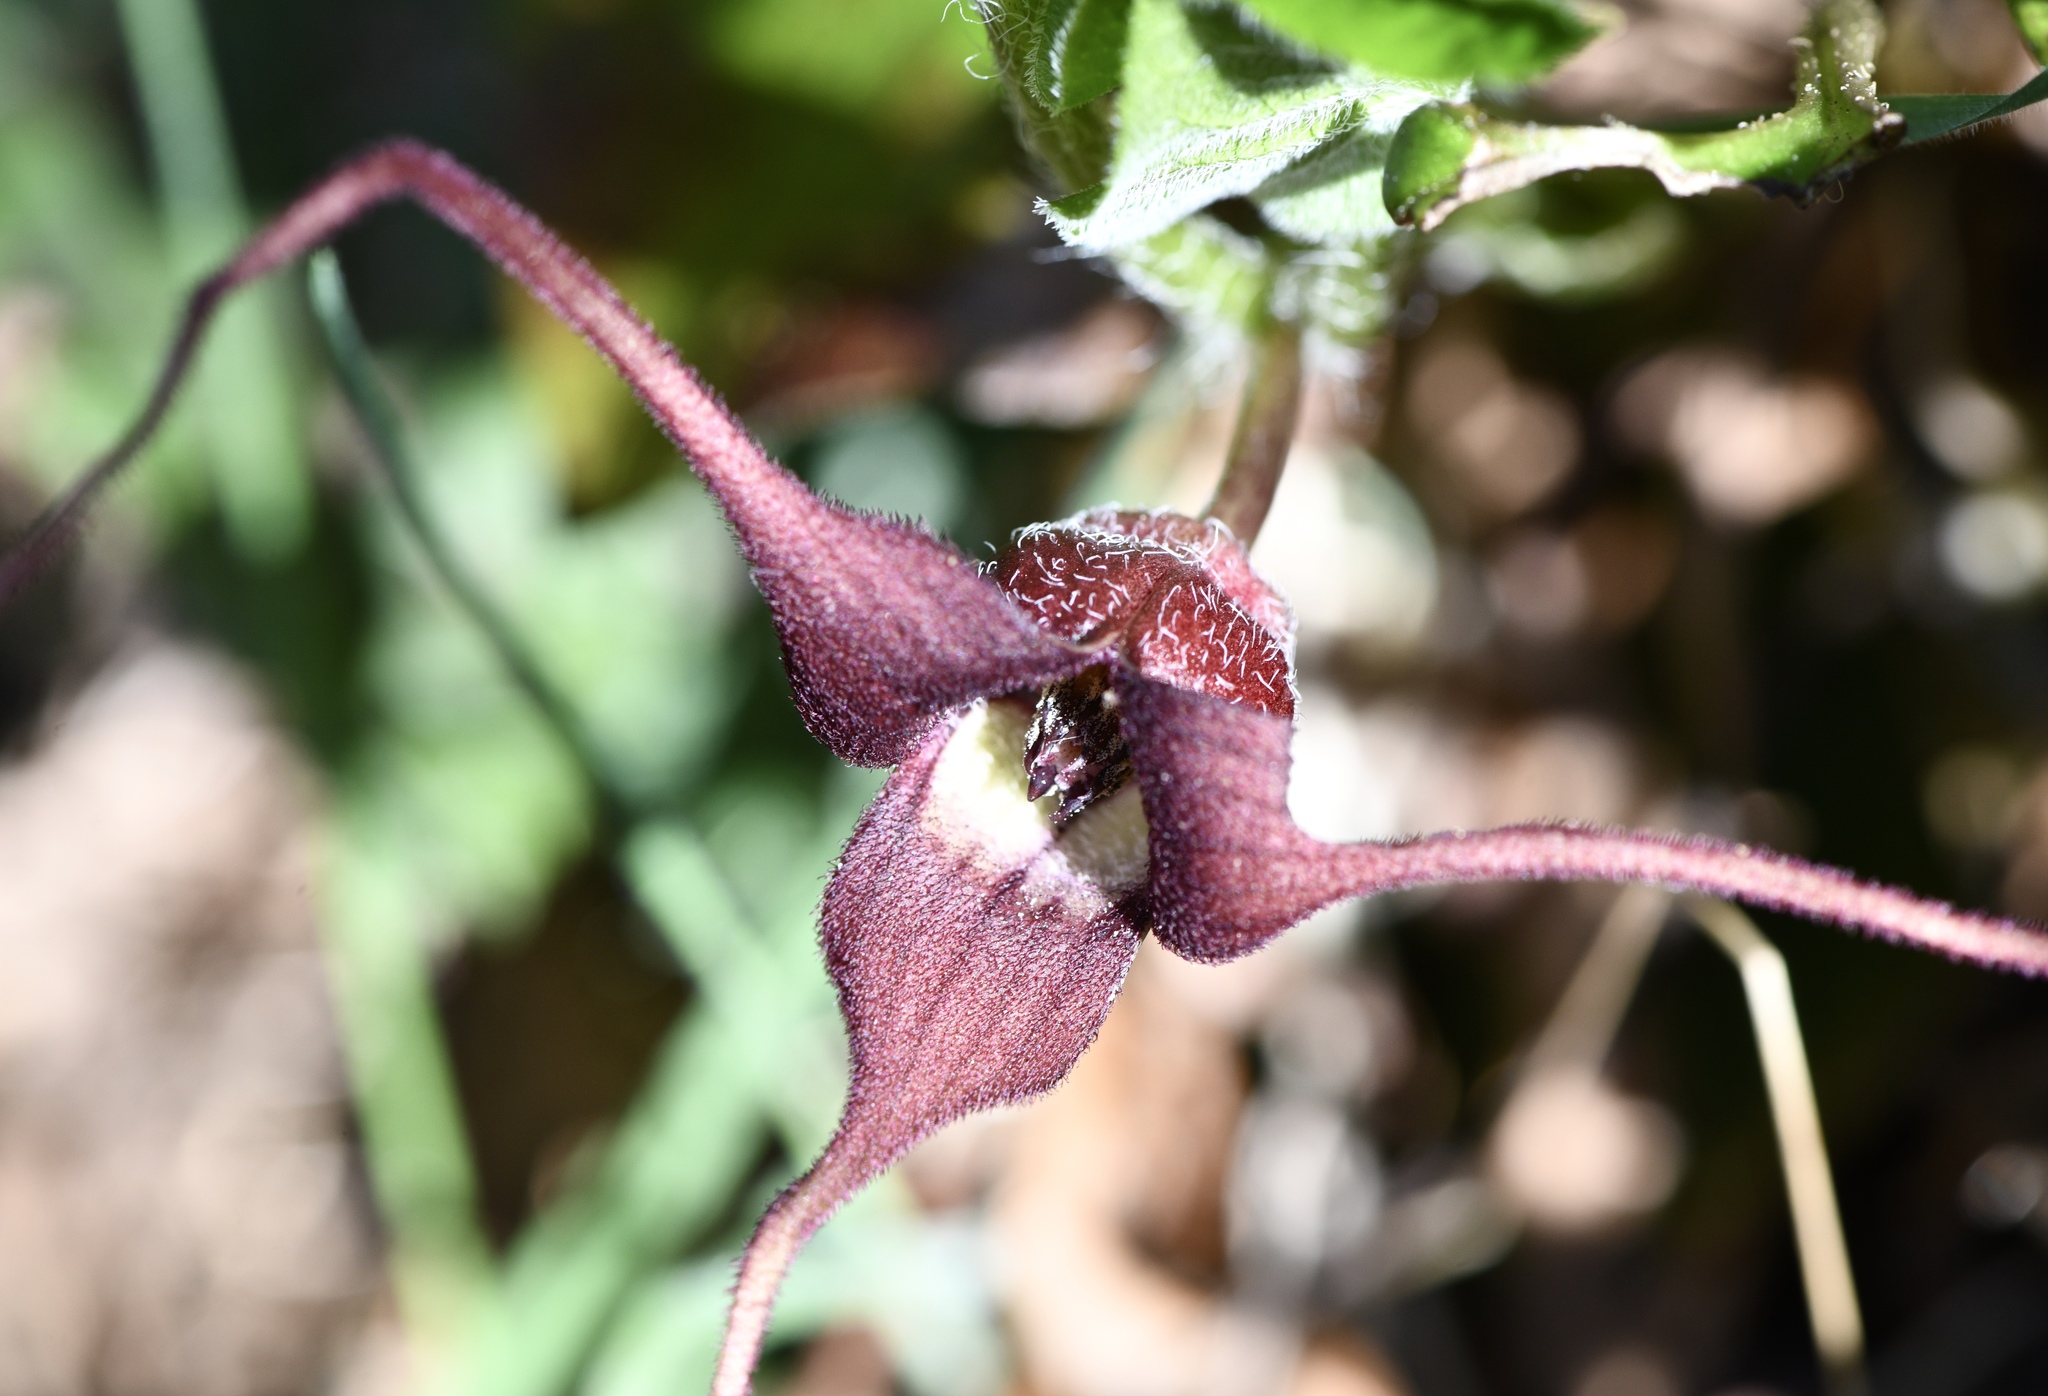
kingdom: Plantae
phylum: Tracheophyta
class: Magnoliopsida
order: Piperales
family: Aristolochiaceae
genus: Asarum
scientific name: Asarum caudatum
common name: Wild ginger
